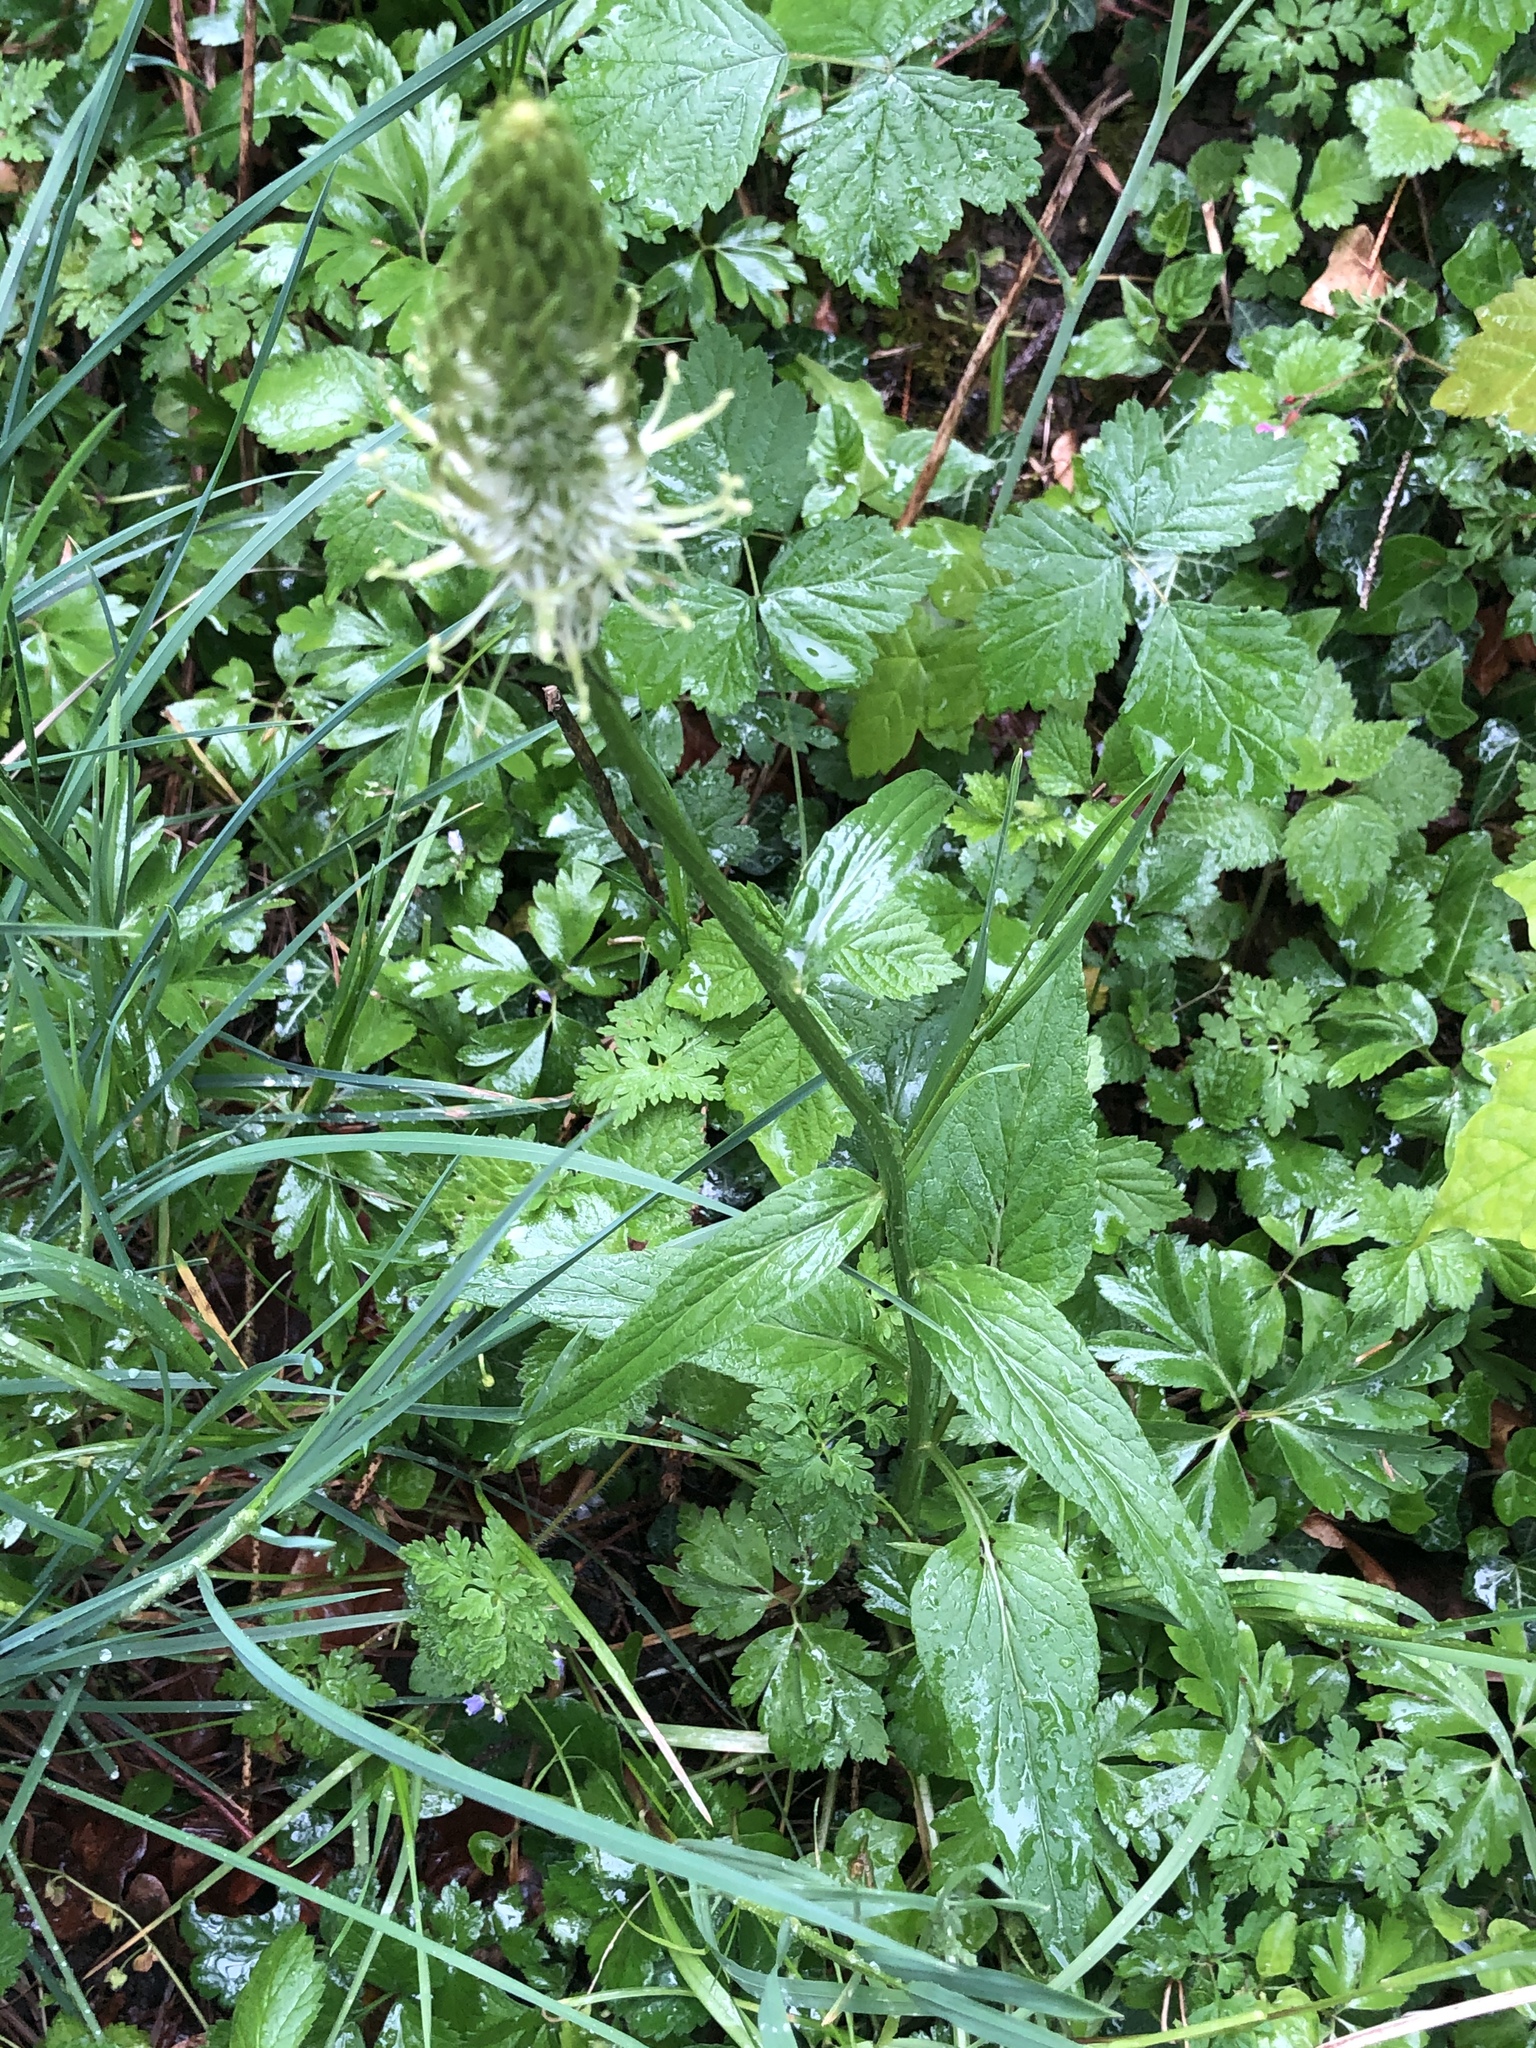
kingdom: Plantae
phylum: Tracheophyta
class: Magnoliopsida
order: Asterales
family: Campanulaceae
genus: Phyteuma
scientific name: Phyteuma spicatum
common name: Spiked rampion
